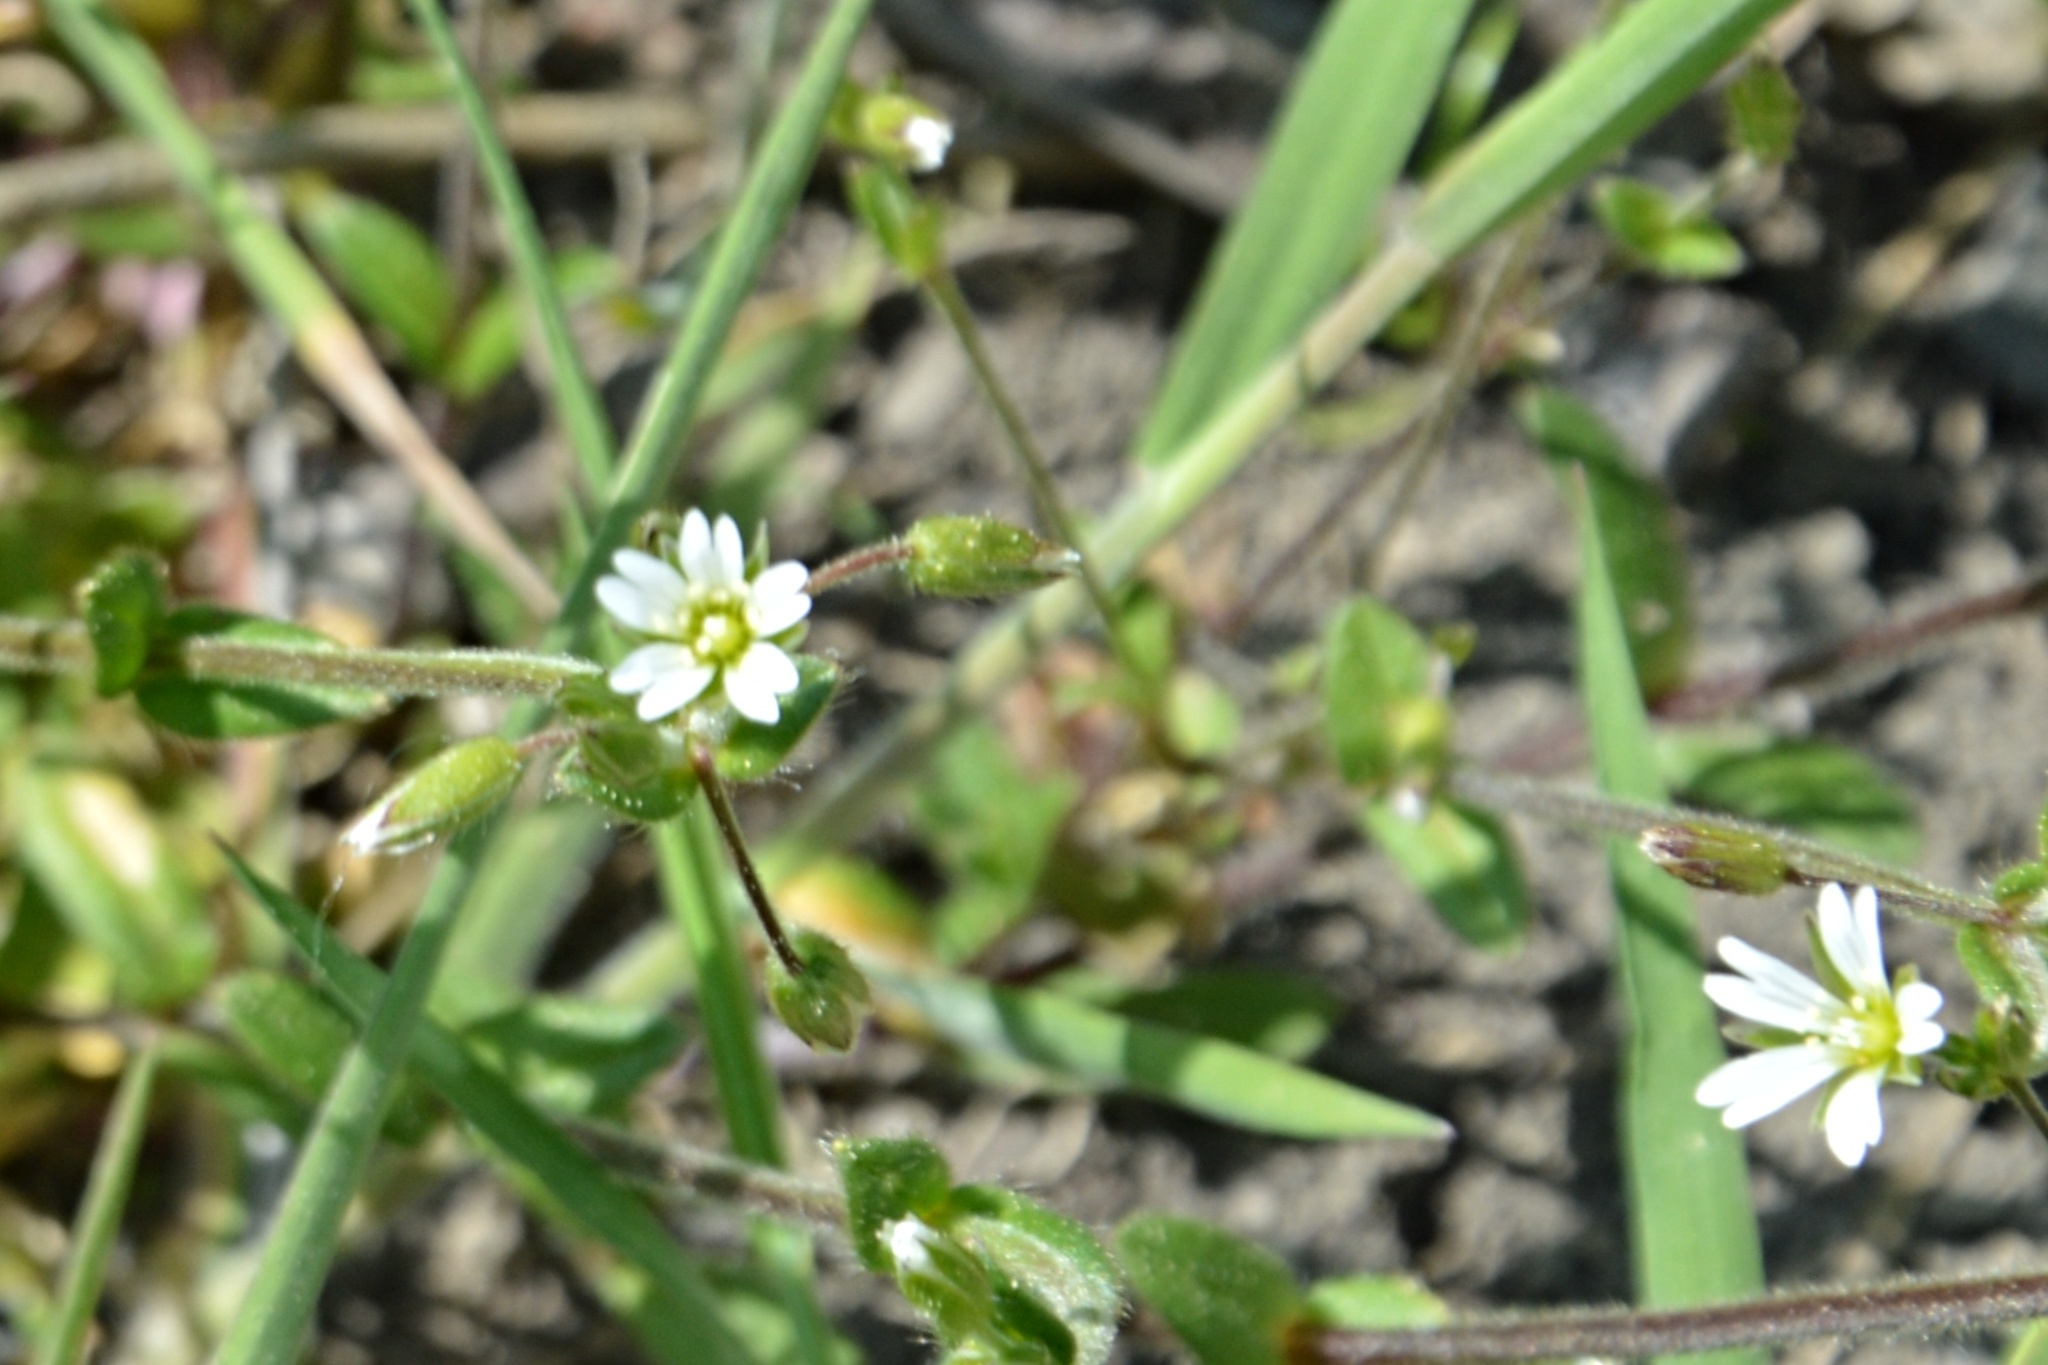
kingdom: Plantae
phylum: Tracheophyta
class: Magnoliopsida
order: Caryophyllales
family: Caryophyllaceae
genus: Cerastium
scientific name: Cerastium holosteoides
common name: Big chickweed
